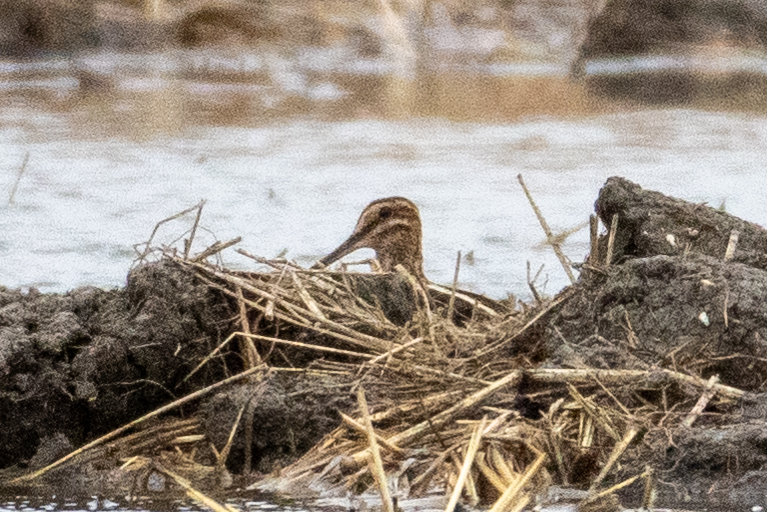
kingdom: Animalia
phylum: Chordata
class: Aves
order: Charadriiformes
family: Scolopacidae
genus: Gallinago
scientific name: Gallinago delicata
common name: Wilson's snipe
